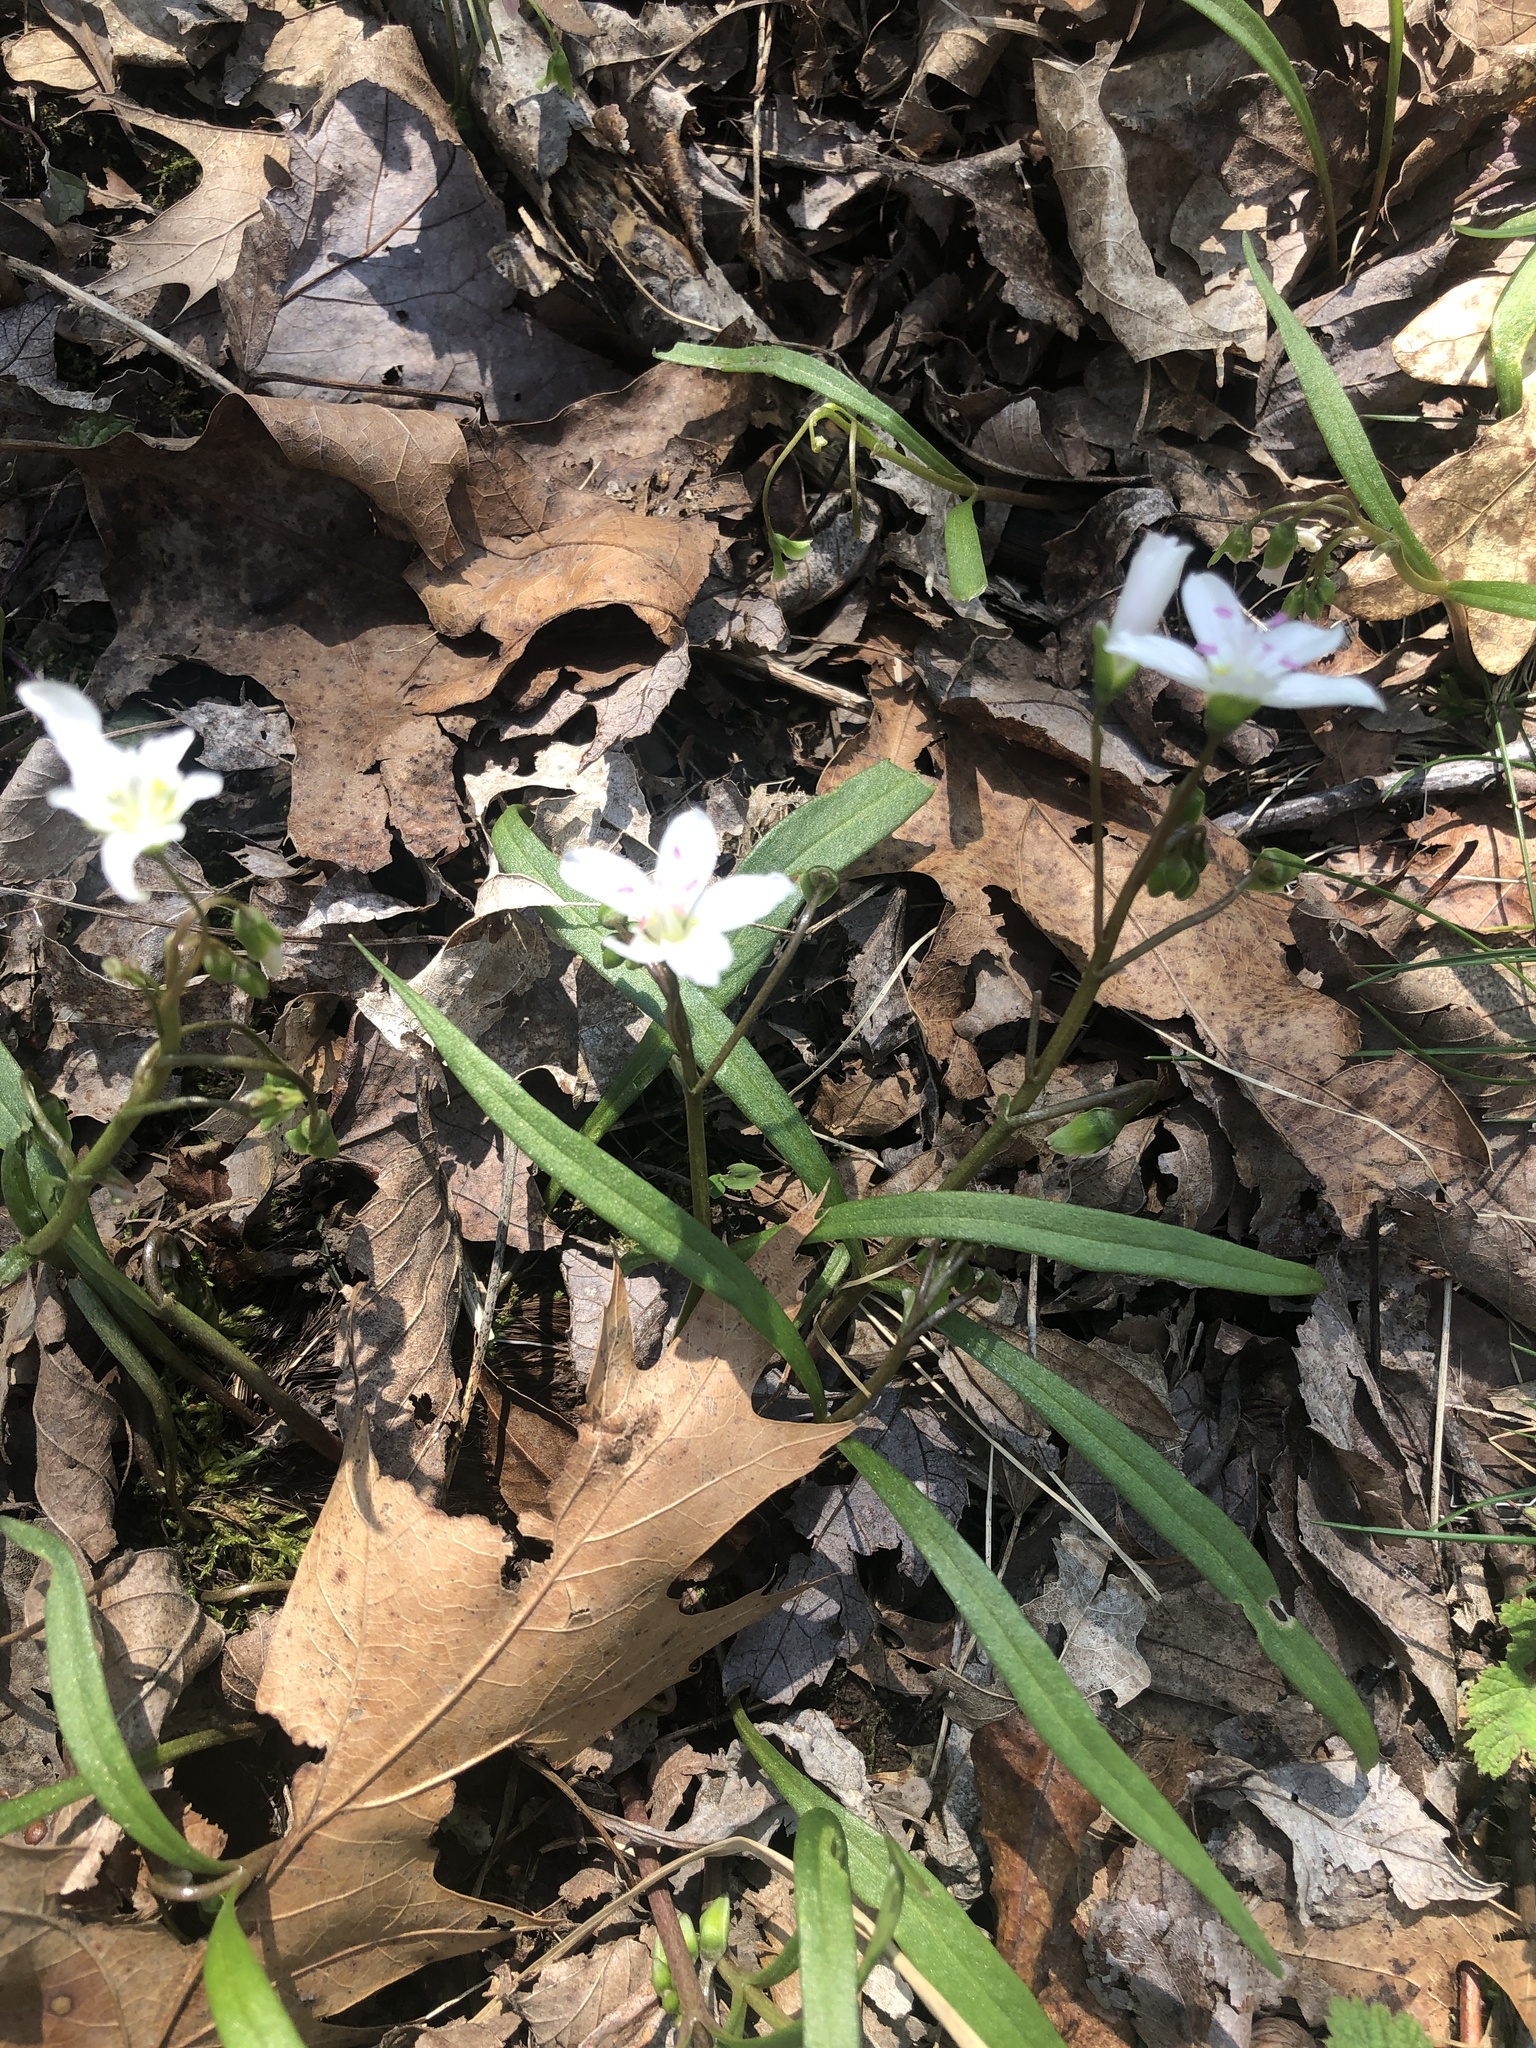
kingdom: Plantae
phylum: Tracheophyta
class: Magnoliopsida
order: Caryophyllales
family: Montiaceae
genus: Claytonia
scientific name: Claytonia virginica
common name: Virginia springbeauty
